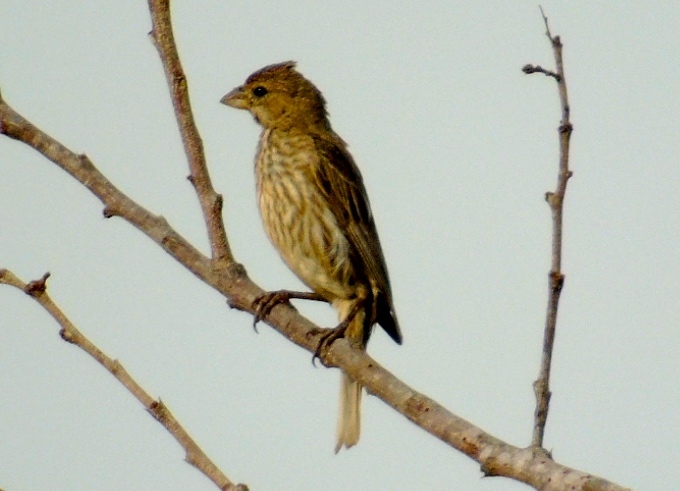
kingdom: Animalia
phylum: Chordata
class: Aves
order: Passeriformes
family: Fringillidae
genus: Haemorhous
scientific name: Haemorhous mexicanus
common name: House finch
